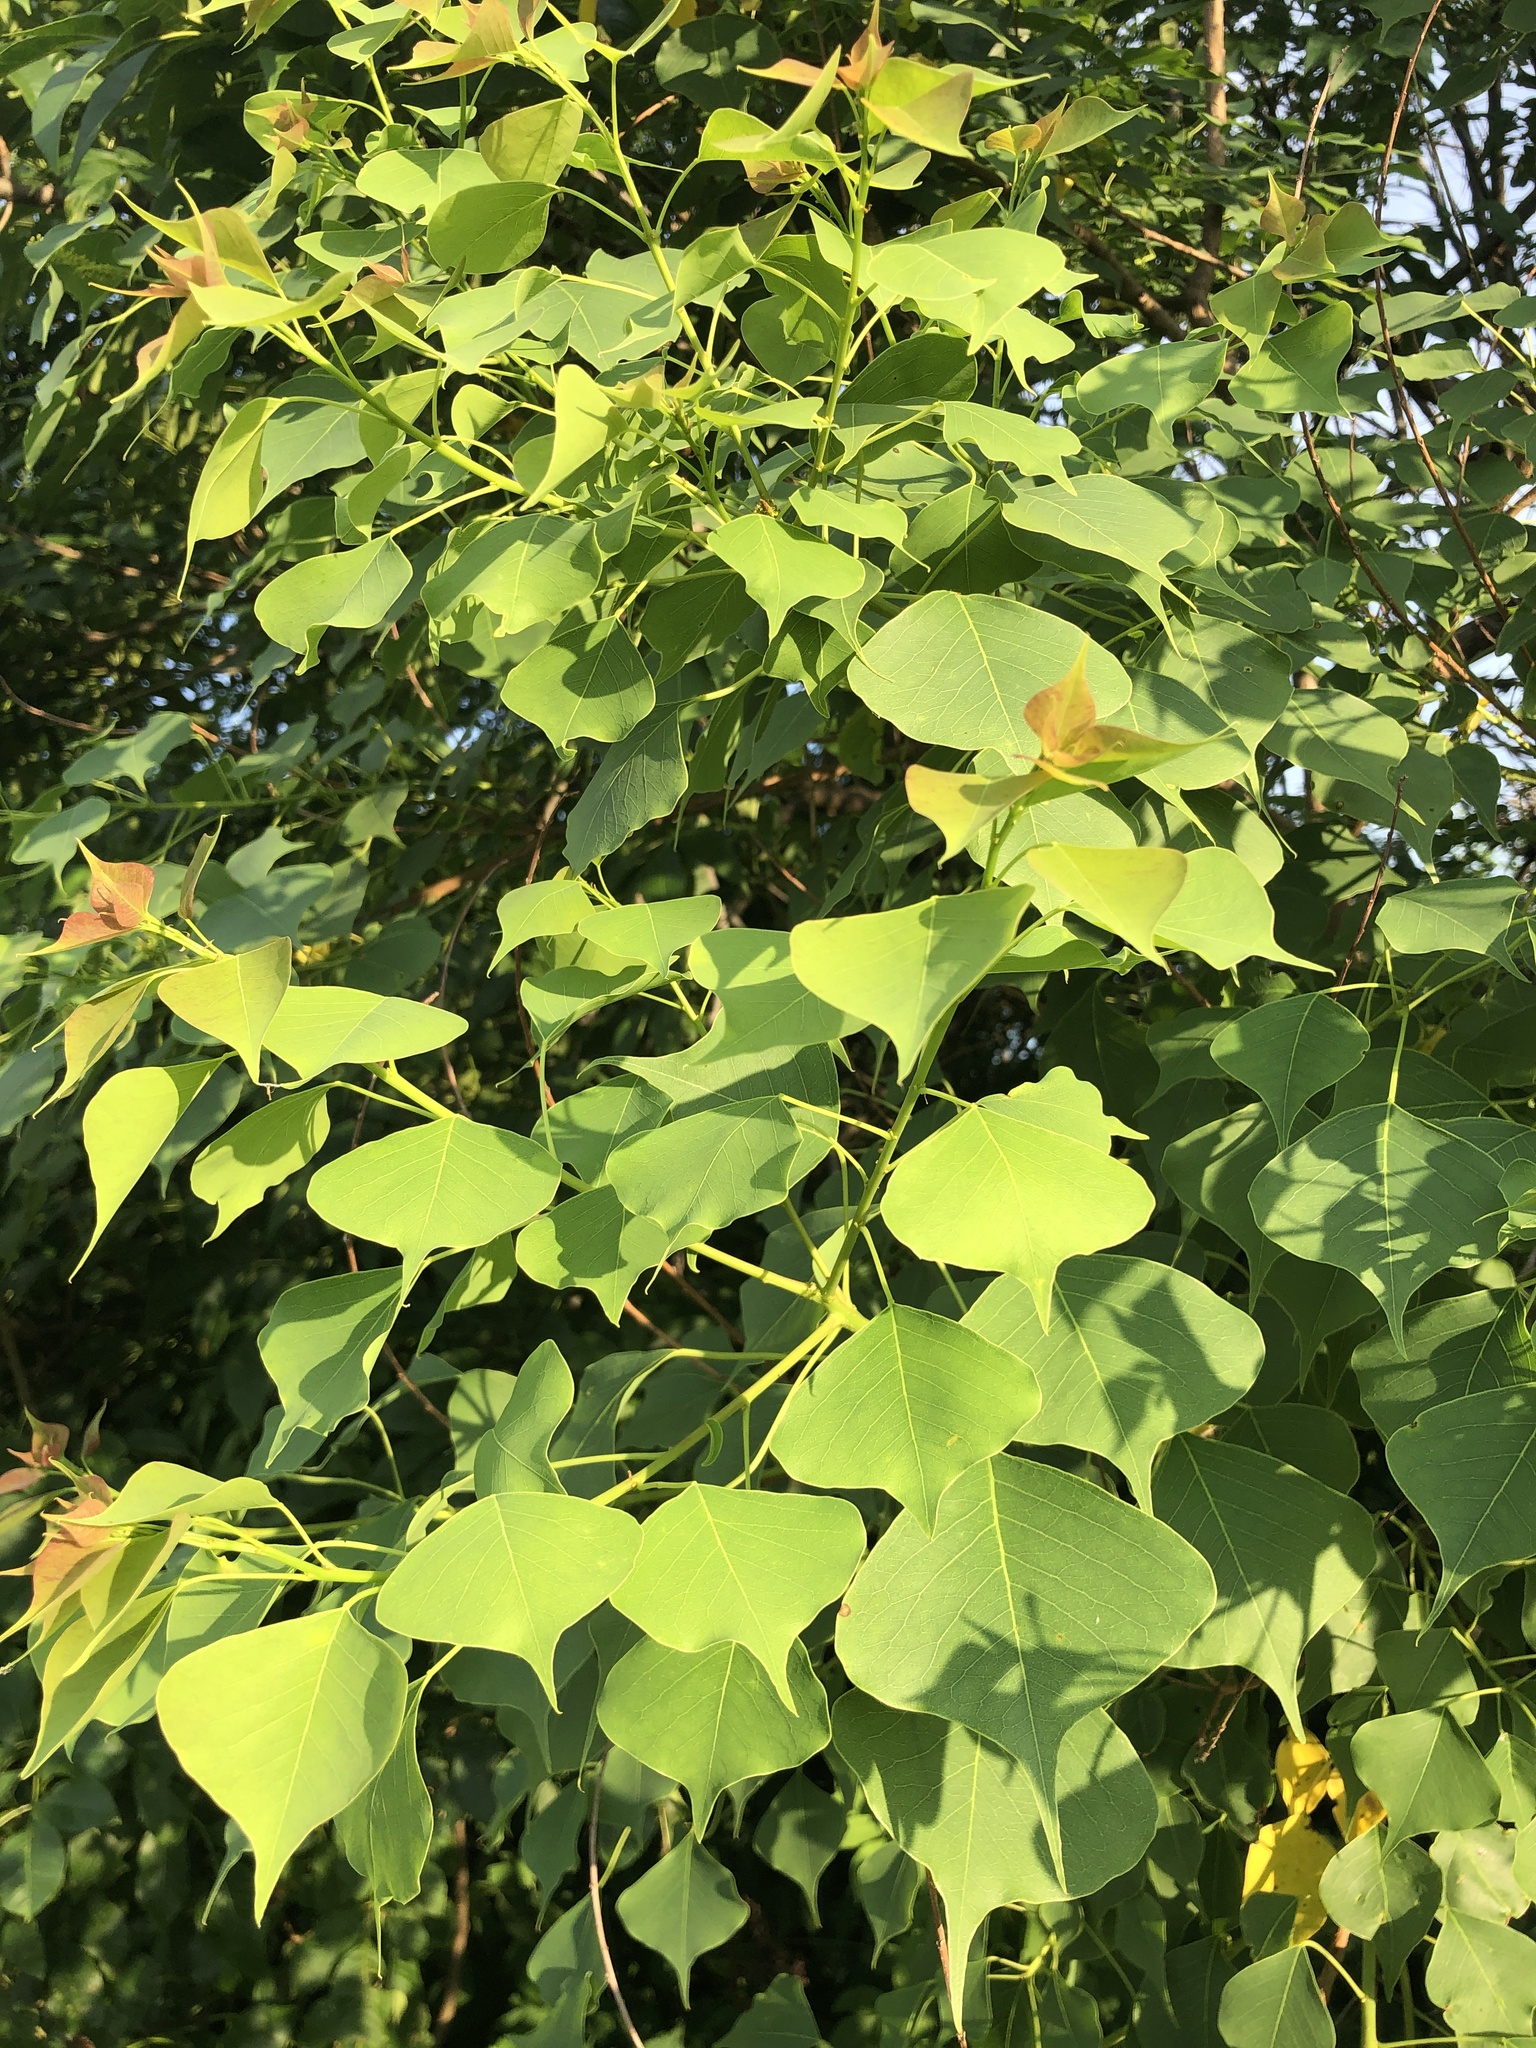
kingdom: Plantae
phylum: Tracheophyta
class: Magnoliopsida
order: Malpighiales
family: Euphorbiaceae
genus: Triadica
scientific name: Triadica sebifera
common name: Chinese tallow
